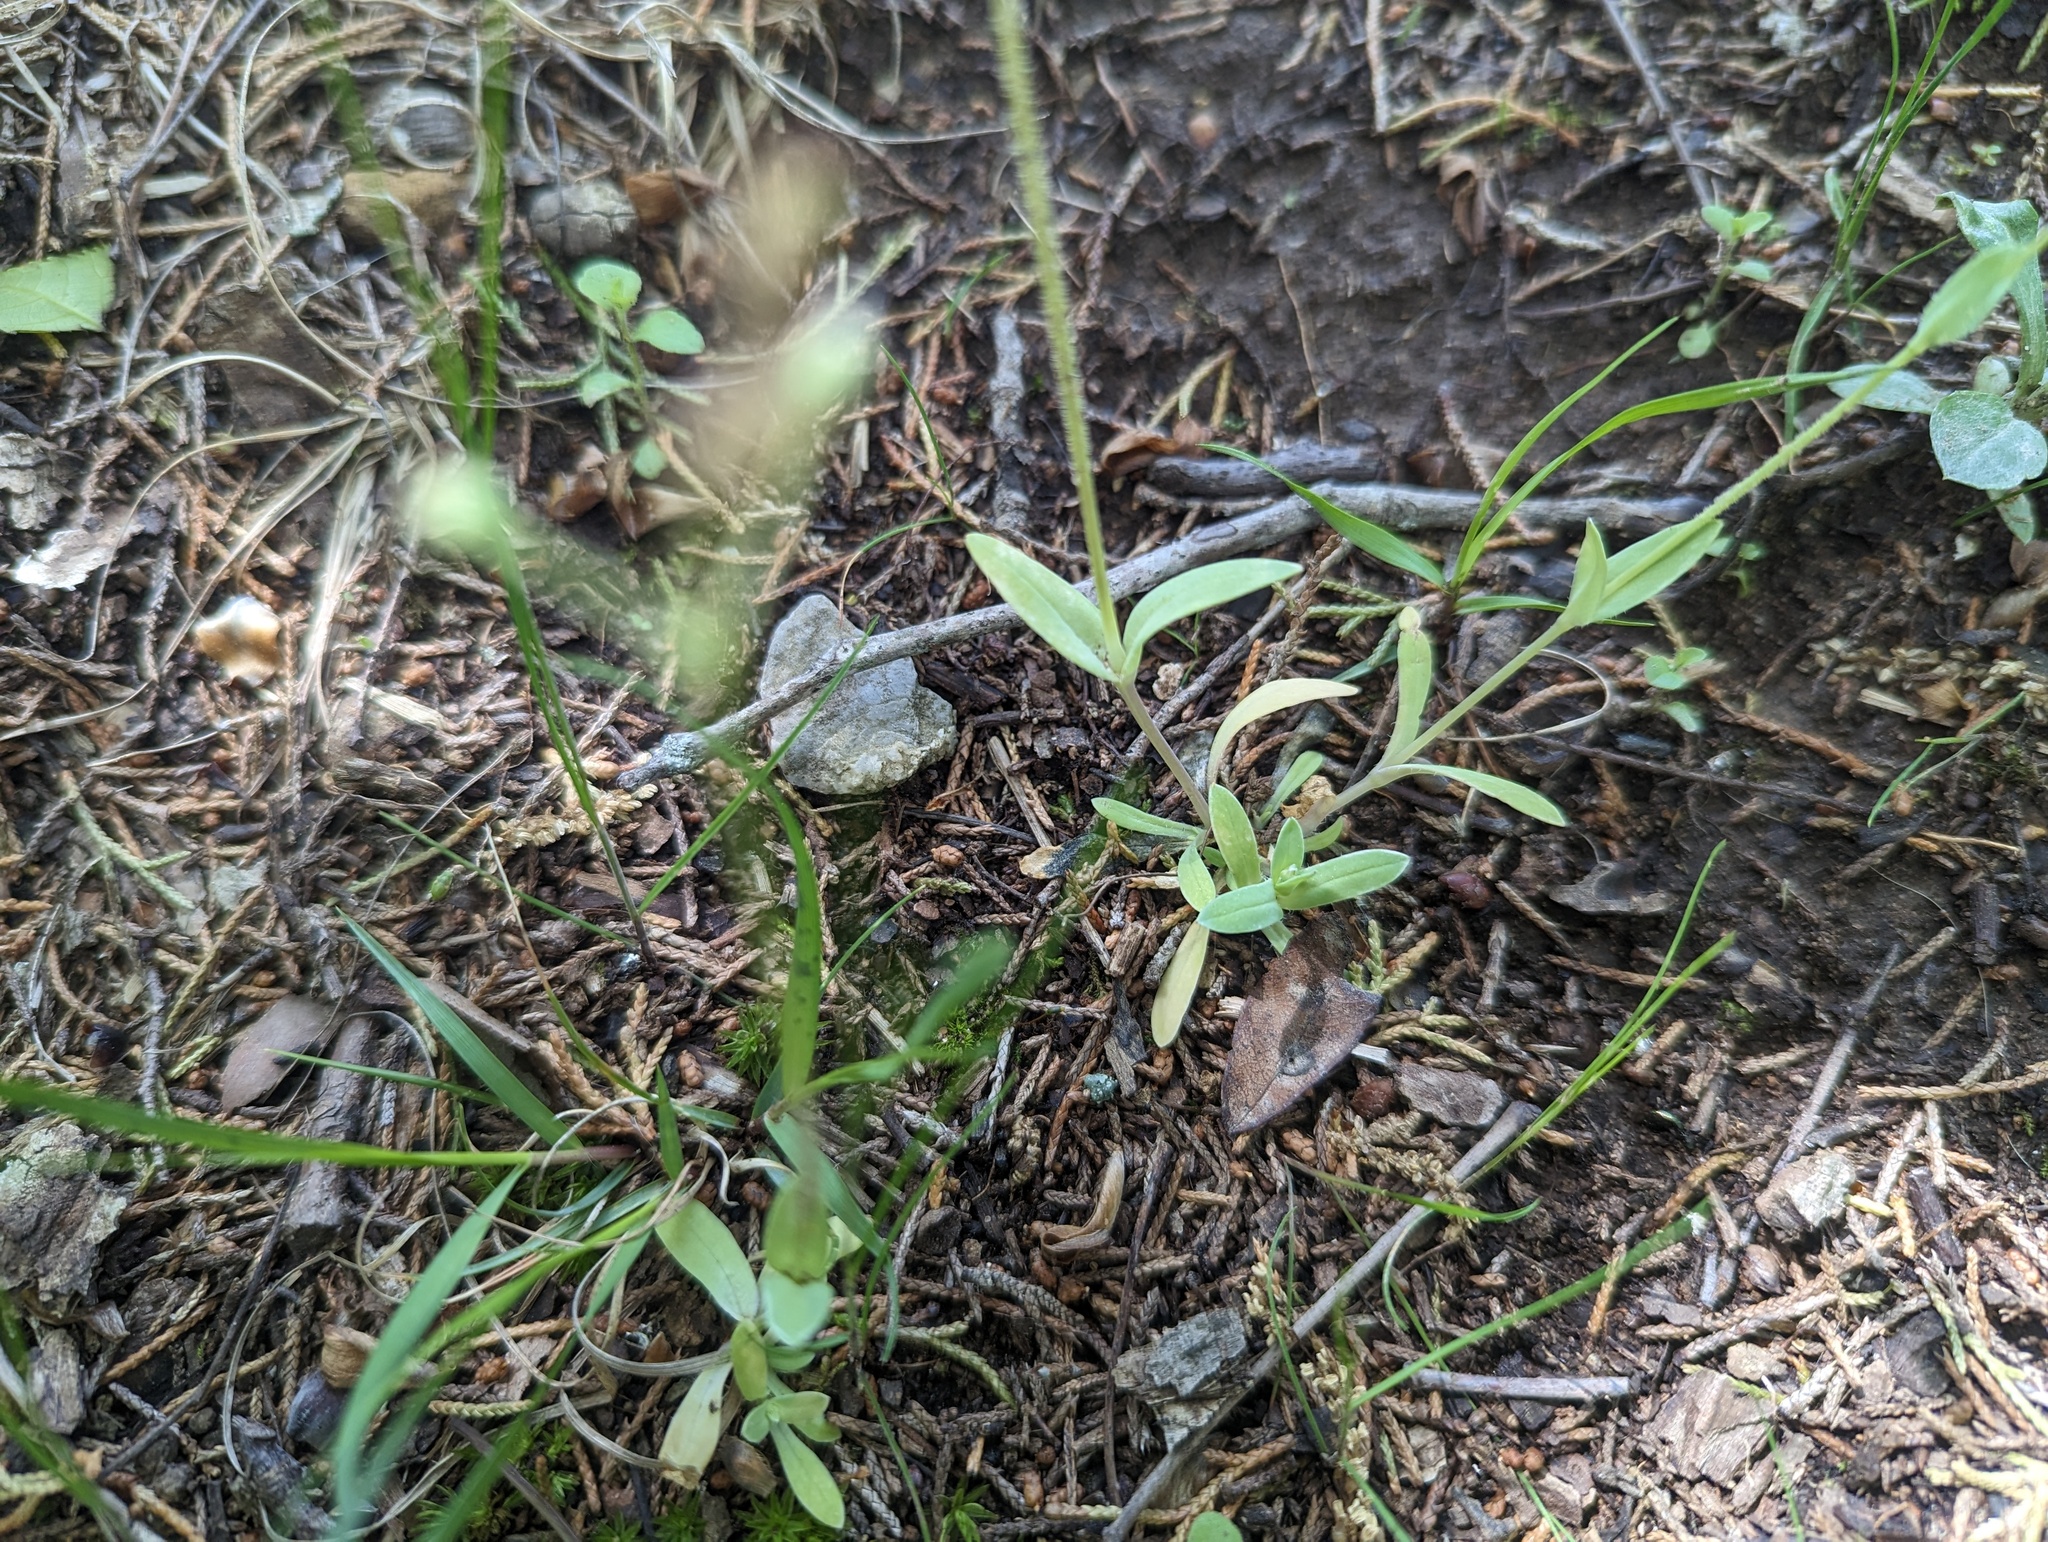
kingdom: Plantae
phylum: Tracheophyta
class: Magnoliopsida
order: Caryophyllales
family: Caryophyllaceae
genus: Holosteum
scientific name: Holosteum umbellatum
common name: Jagged chickweed
